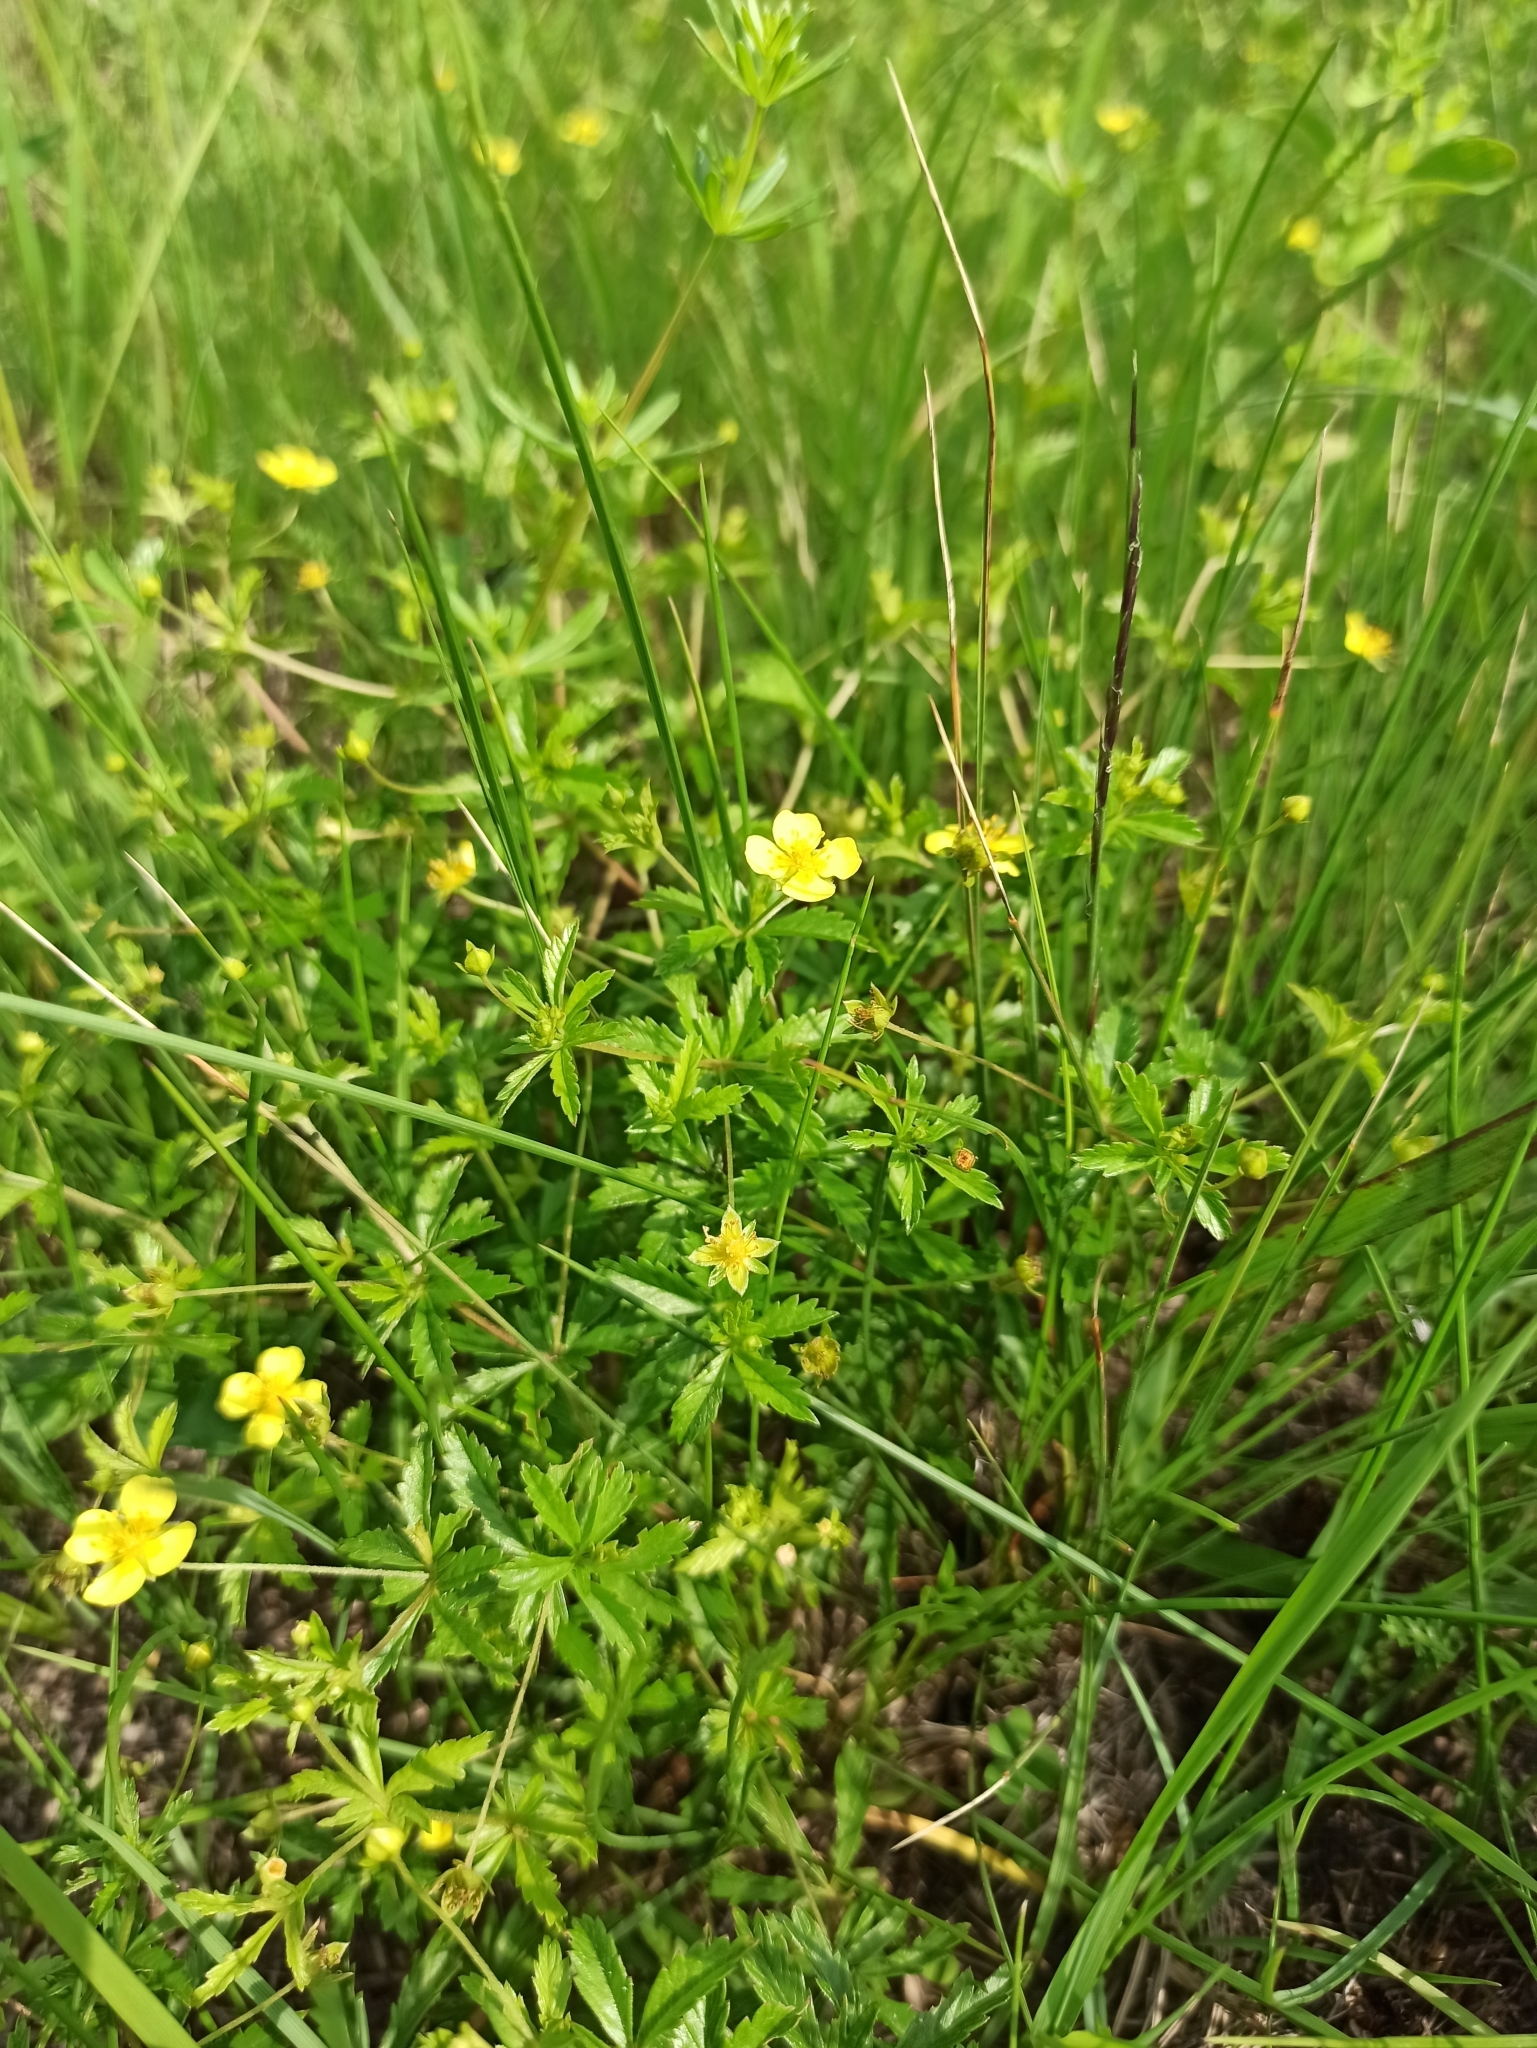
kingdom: Plantae
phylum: Tracheophyta
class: Magnoliopsida
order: Rosales
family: Rosaceae
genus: Potentilla
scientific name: Potentilla erecta
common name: Tormentil
